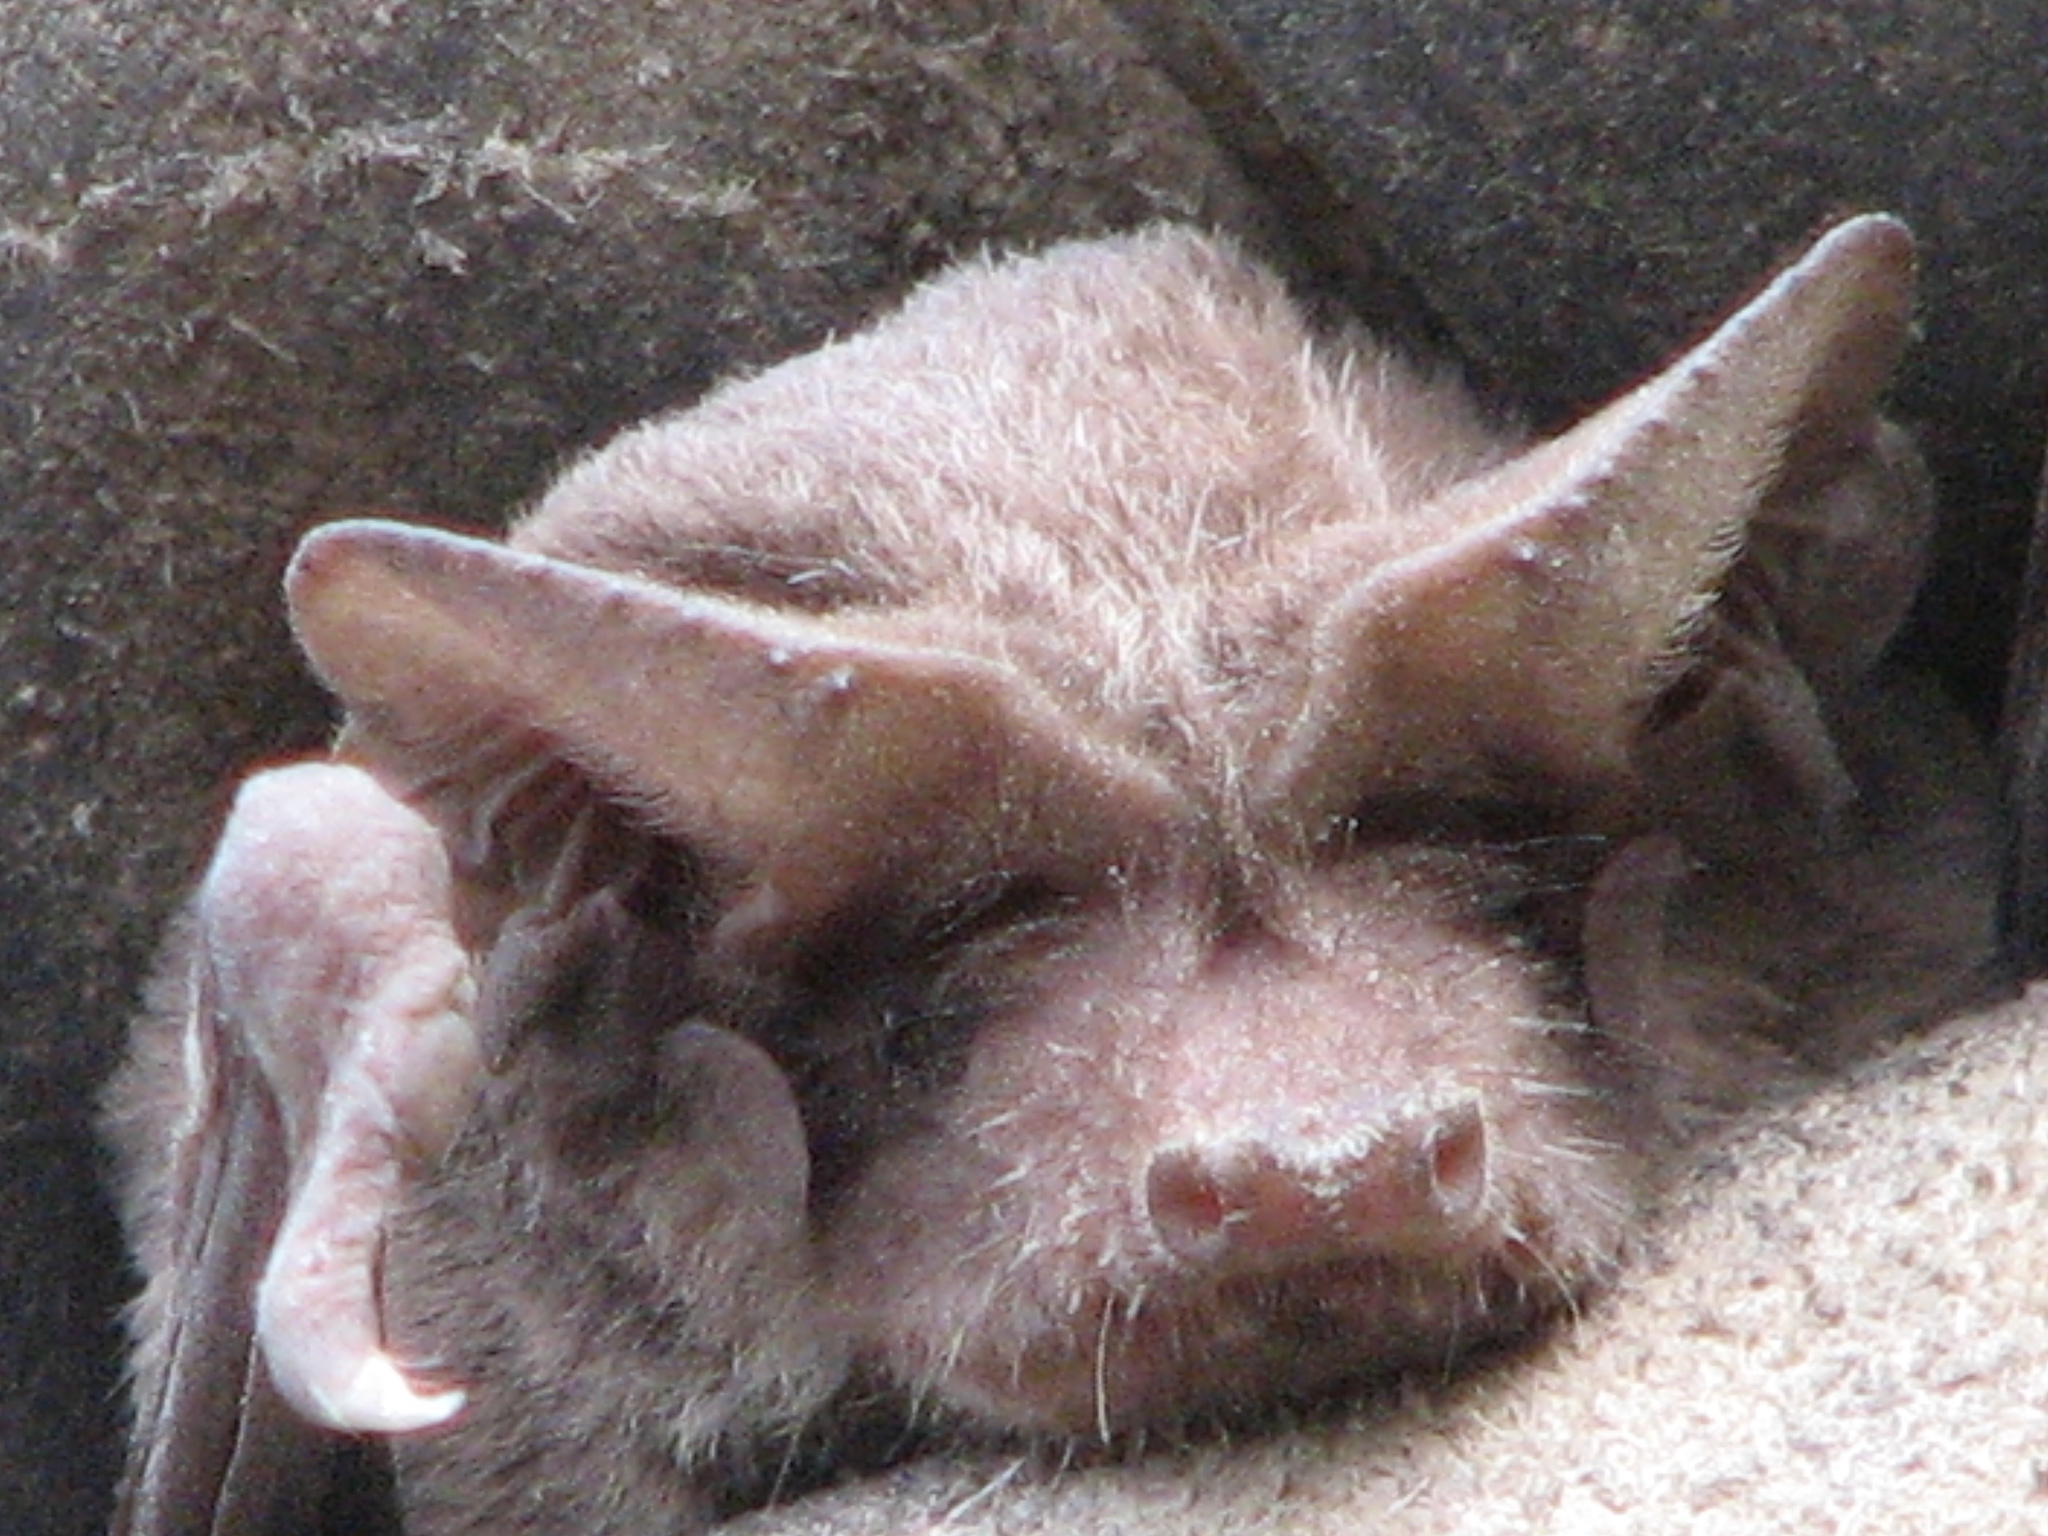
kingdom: Animalia
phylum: Chordata
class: Mammalia
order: Chiroptera
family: Molossidae
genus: Tadarida
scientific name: Tadarida brasiliensis
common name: Mexican free-tailed bat
